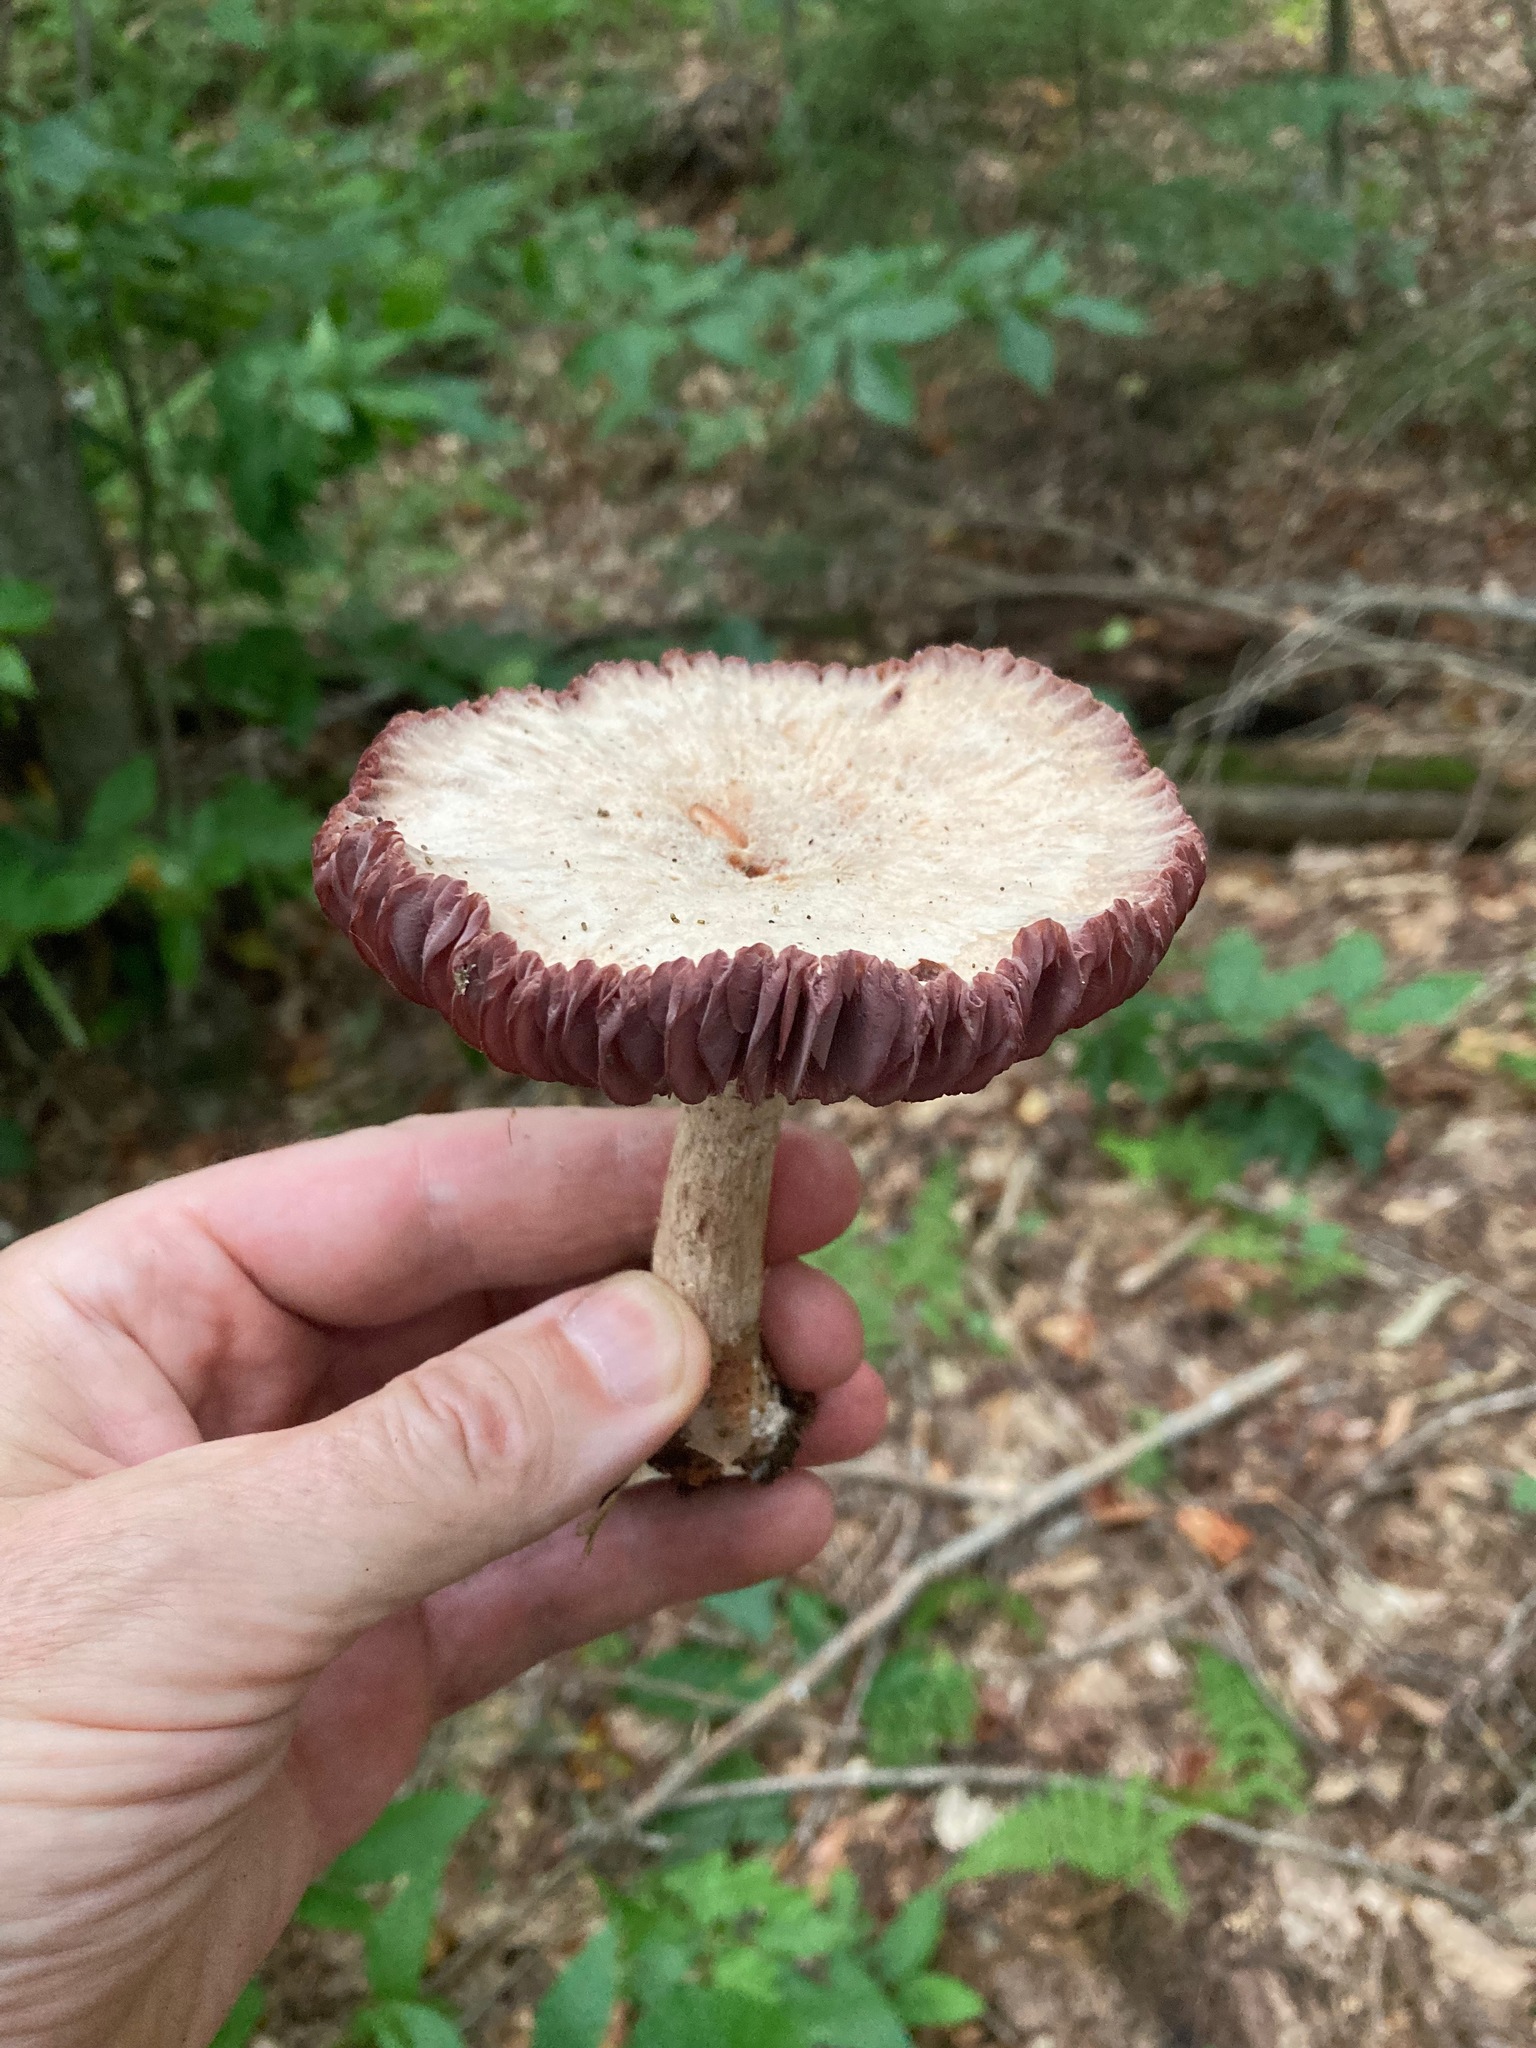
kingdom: Fungi
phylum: Basidiomycota
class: Agaricomycetes
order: Agaricales
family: Hydnangiaceae
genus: Laccaria
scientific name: Laccaria ochropurpurea
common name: Purple laccaria
